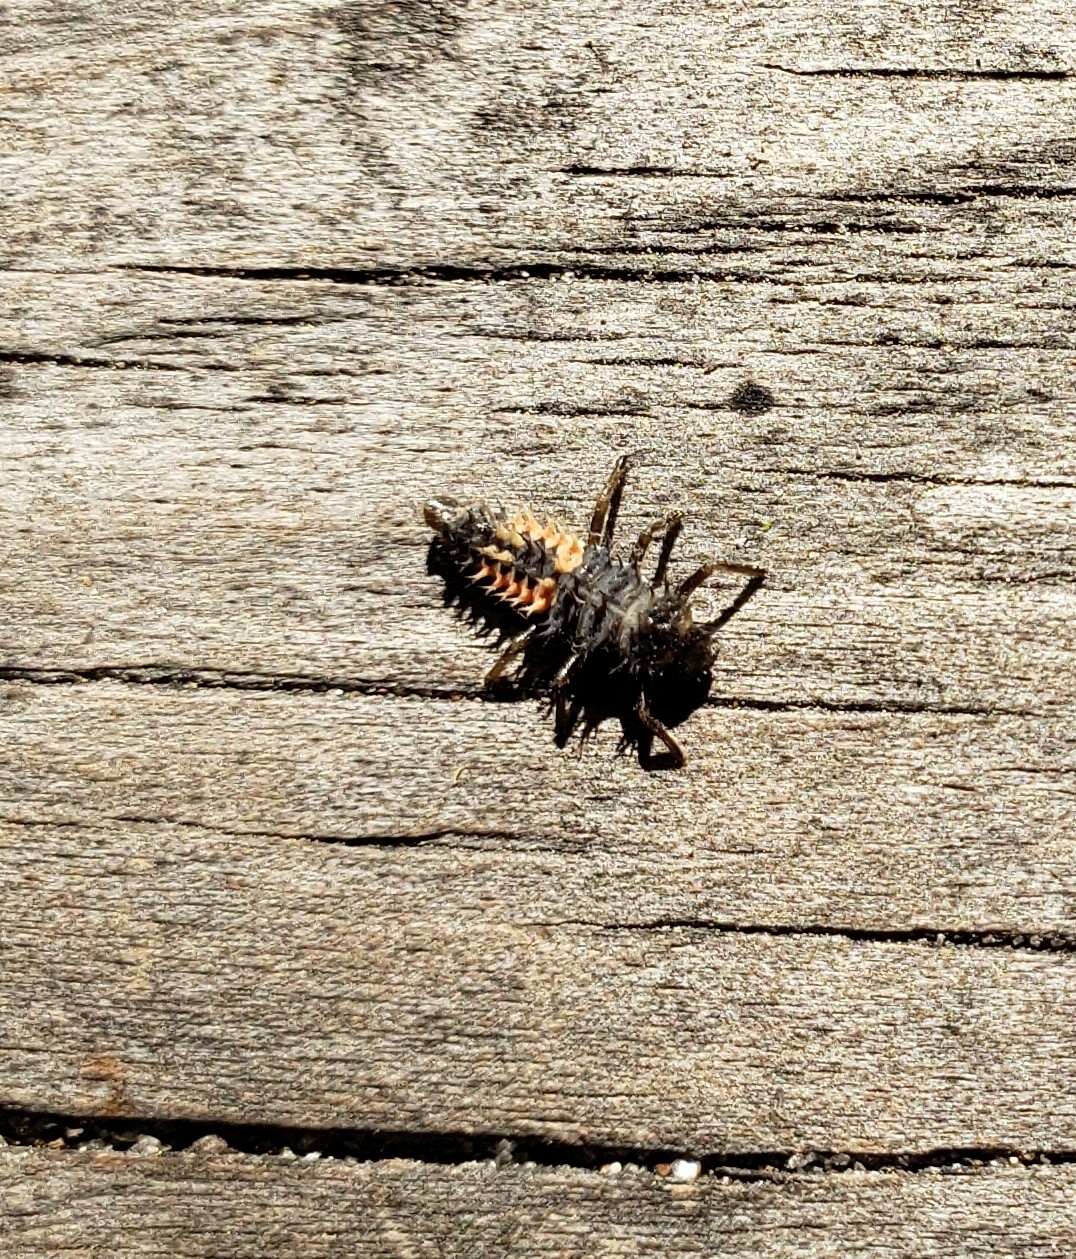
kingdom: Animalia
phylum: Arthropoda
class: Insecta
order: Coleoptera
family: Coccinellidae
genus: Harmonia
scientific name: Harmonia axyridis
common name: Harlequin ladybird
